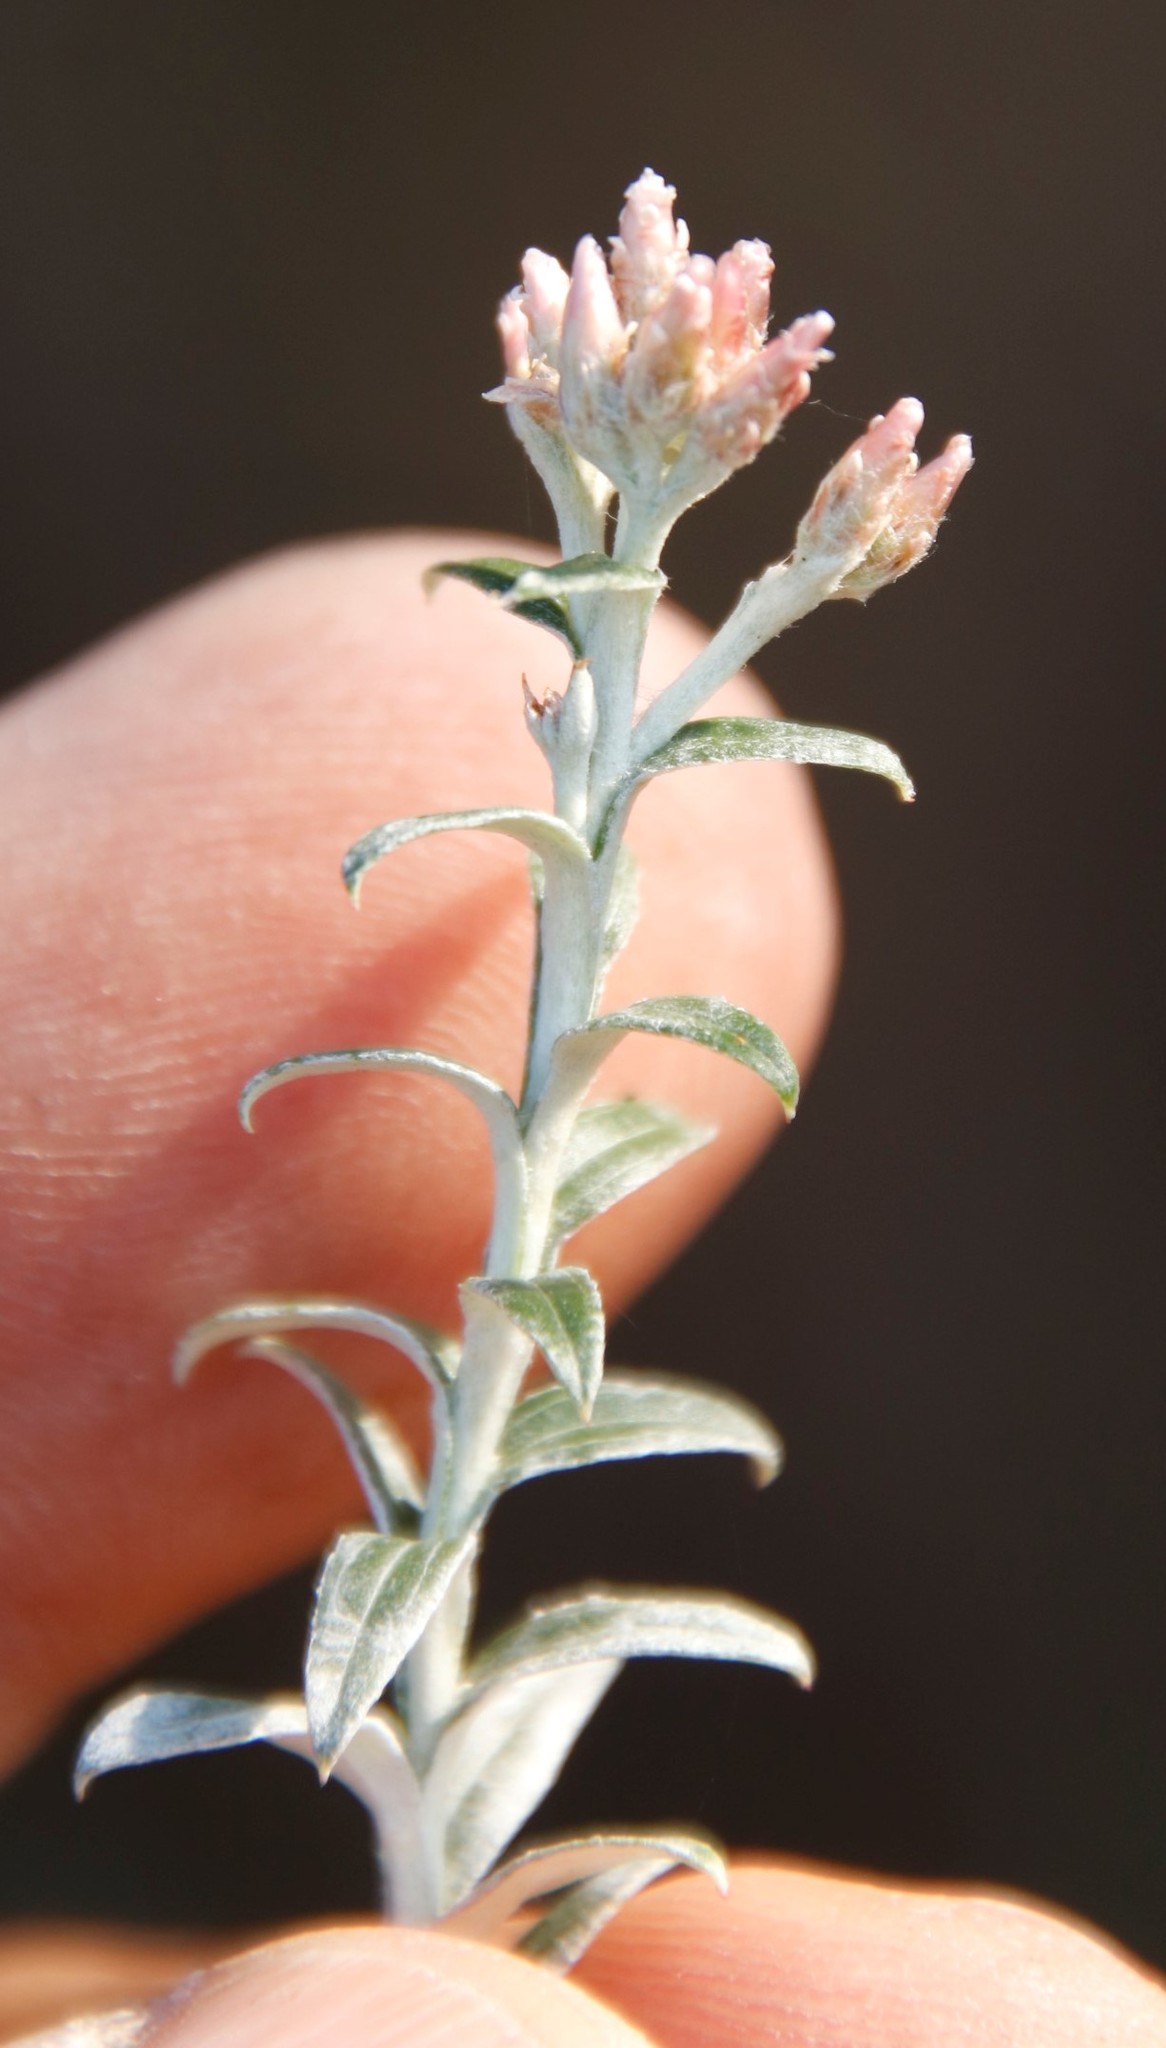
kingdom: Plantae
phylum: Tracheophyta
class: Magnoliopsida
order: Asterales
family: Asteraceae
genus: Tenrhynea
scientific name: Tenrhynea phylicifolia
